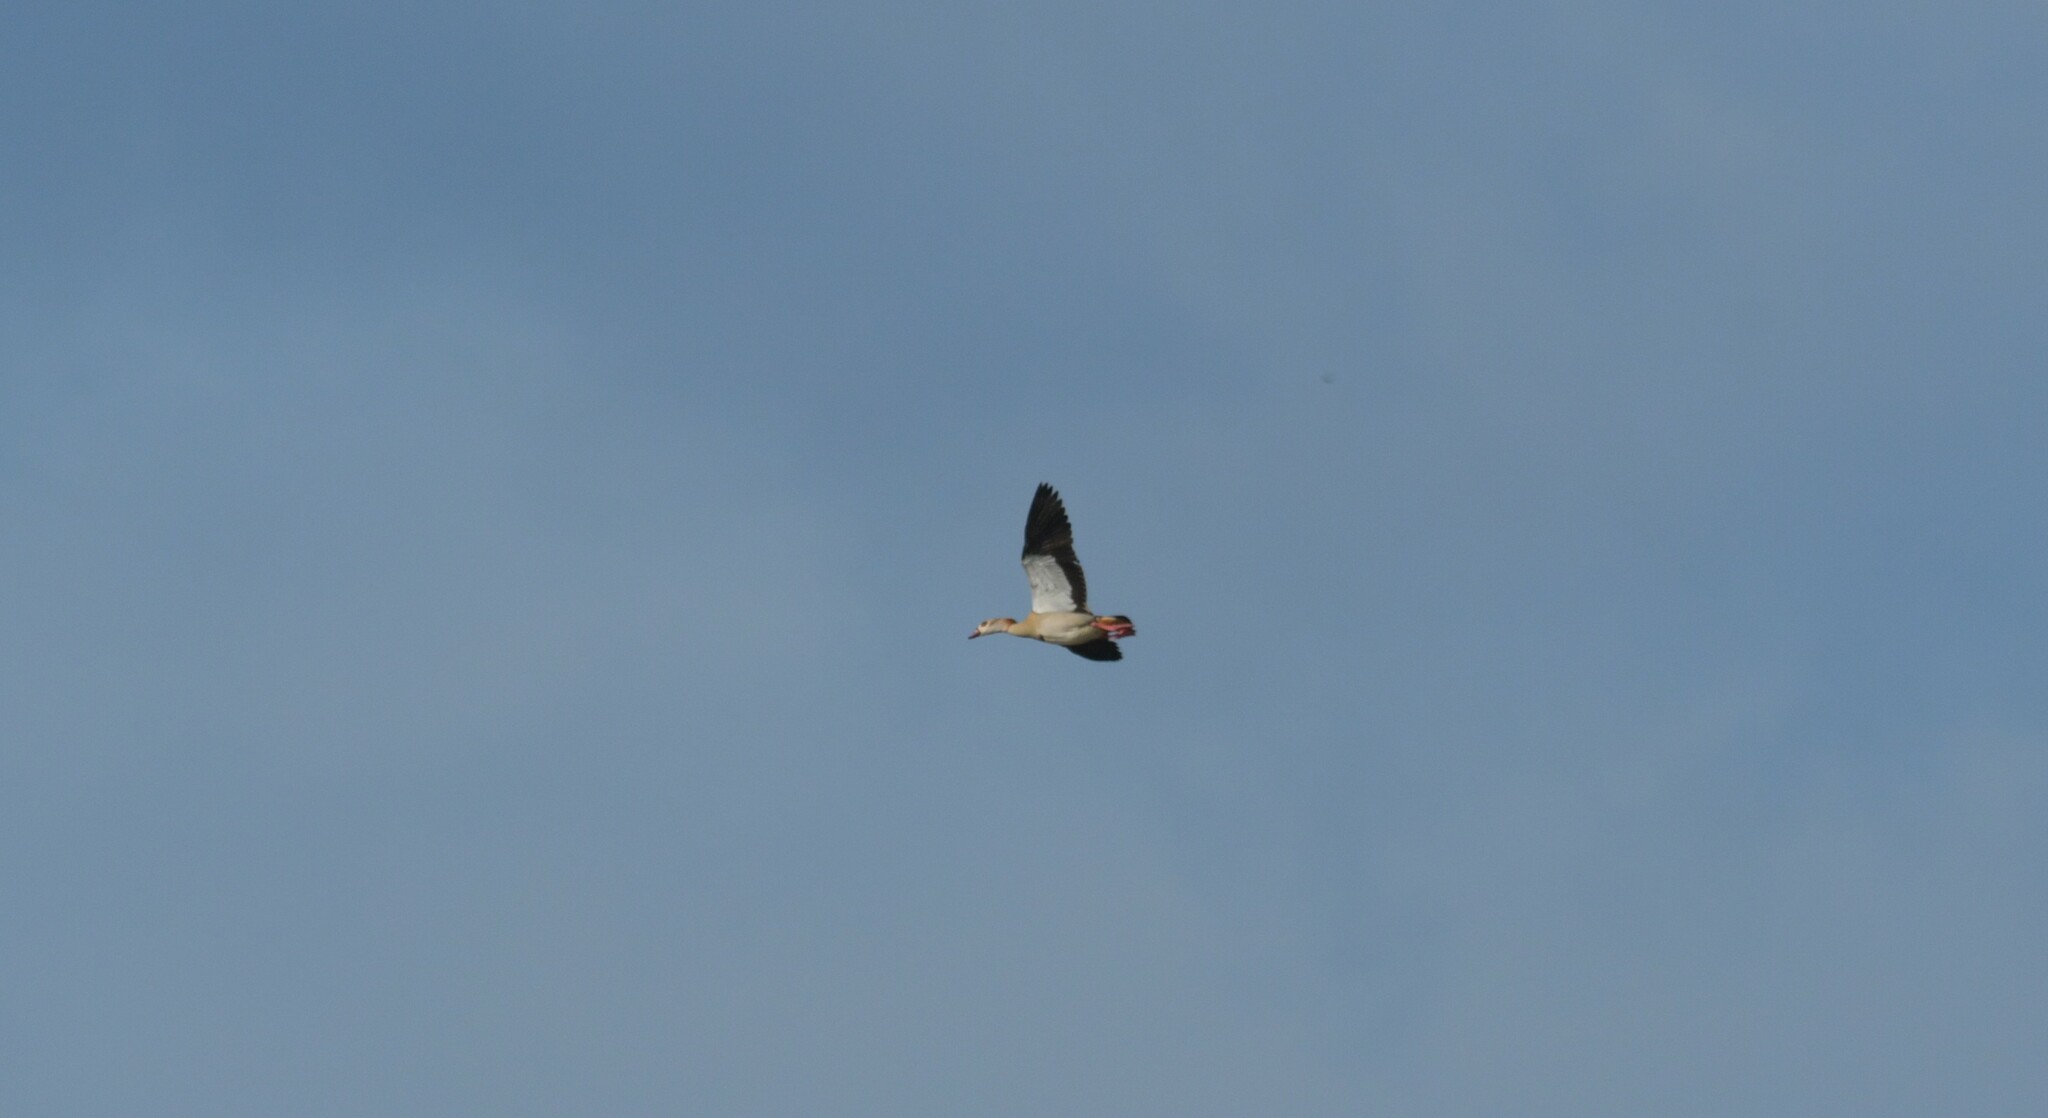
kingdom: Animalia
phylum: Chordata
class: Aves
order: Anseriformes
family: Anatidae
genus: Alopochen
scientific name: Alopochen aegyptiaca
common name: Egyptian goose
